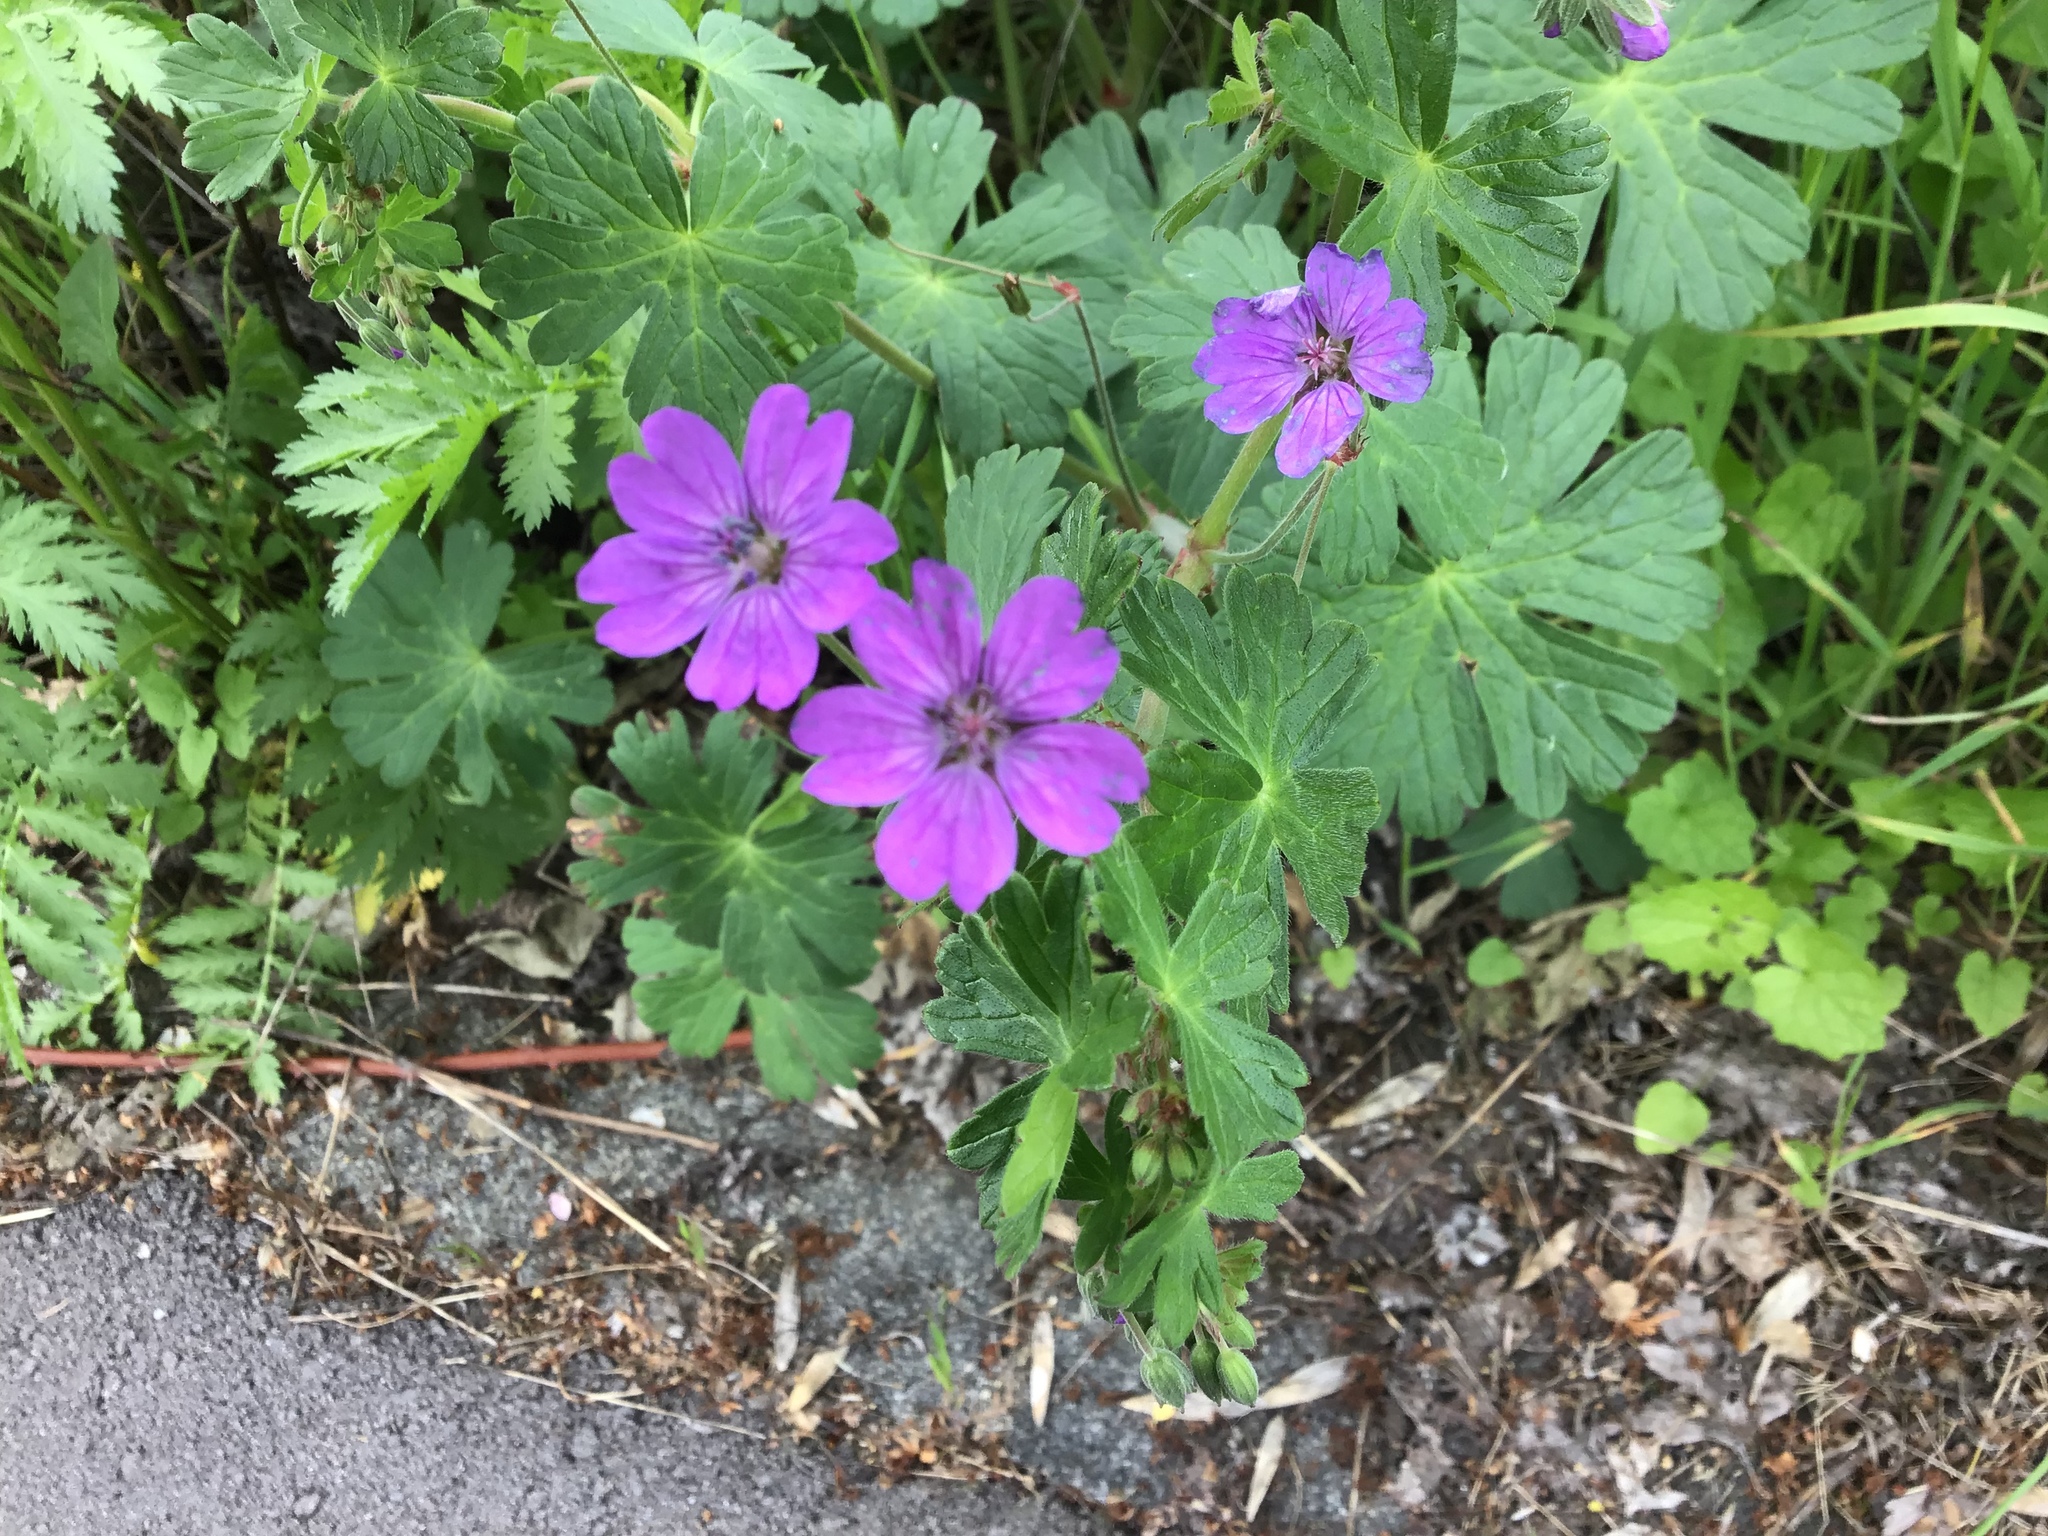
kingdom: Plantae
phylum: Tracheophyta
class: Magnoliopsida
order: Geraniales
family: Geraniaceae
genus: Geranium
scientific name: Geranium pyrenaicum
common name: Hedgerow crane's-bill
